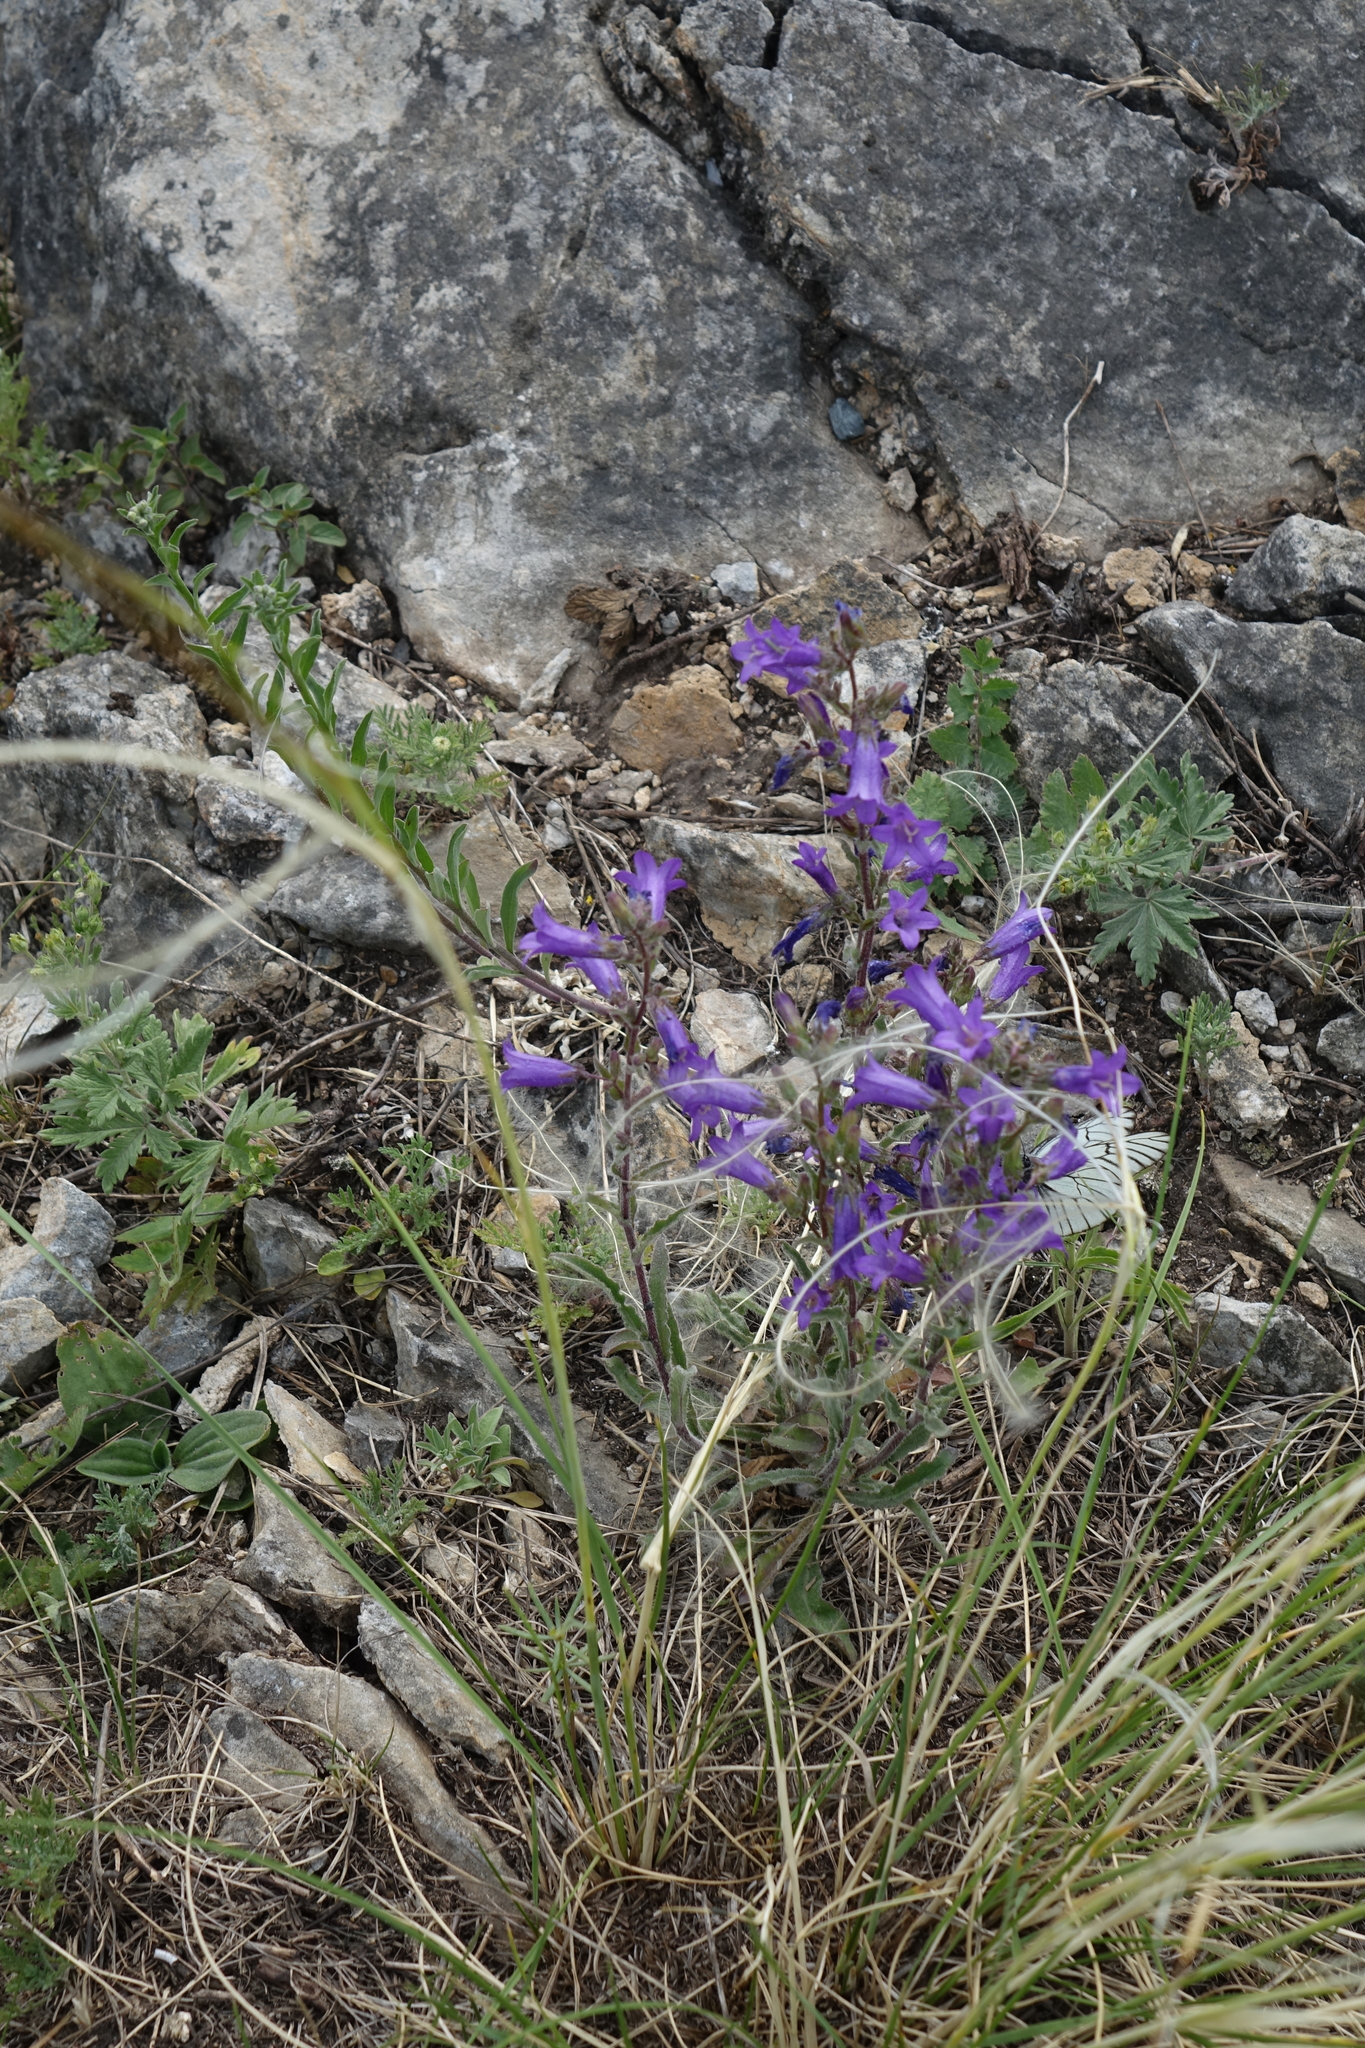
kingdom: Plantae
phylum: Tracheophyta
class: Magnoliopsida
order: Asterales
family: Campanulaceae
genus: Campanula
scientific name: Campanula sibirica
